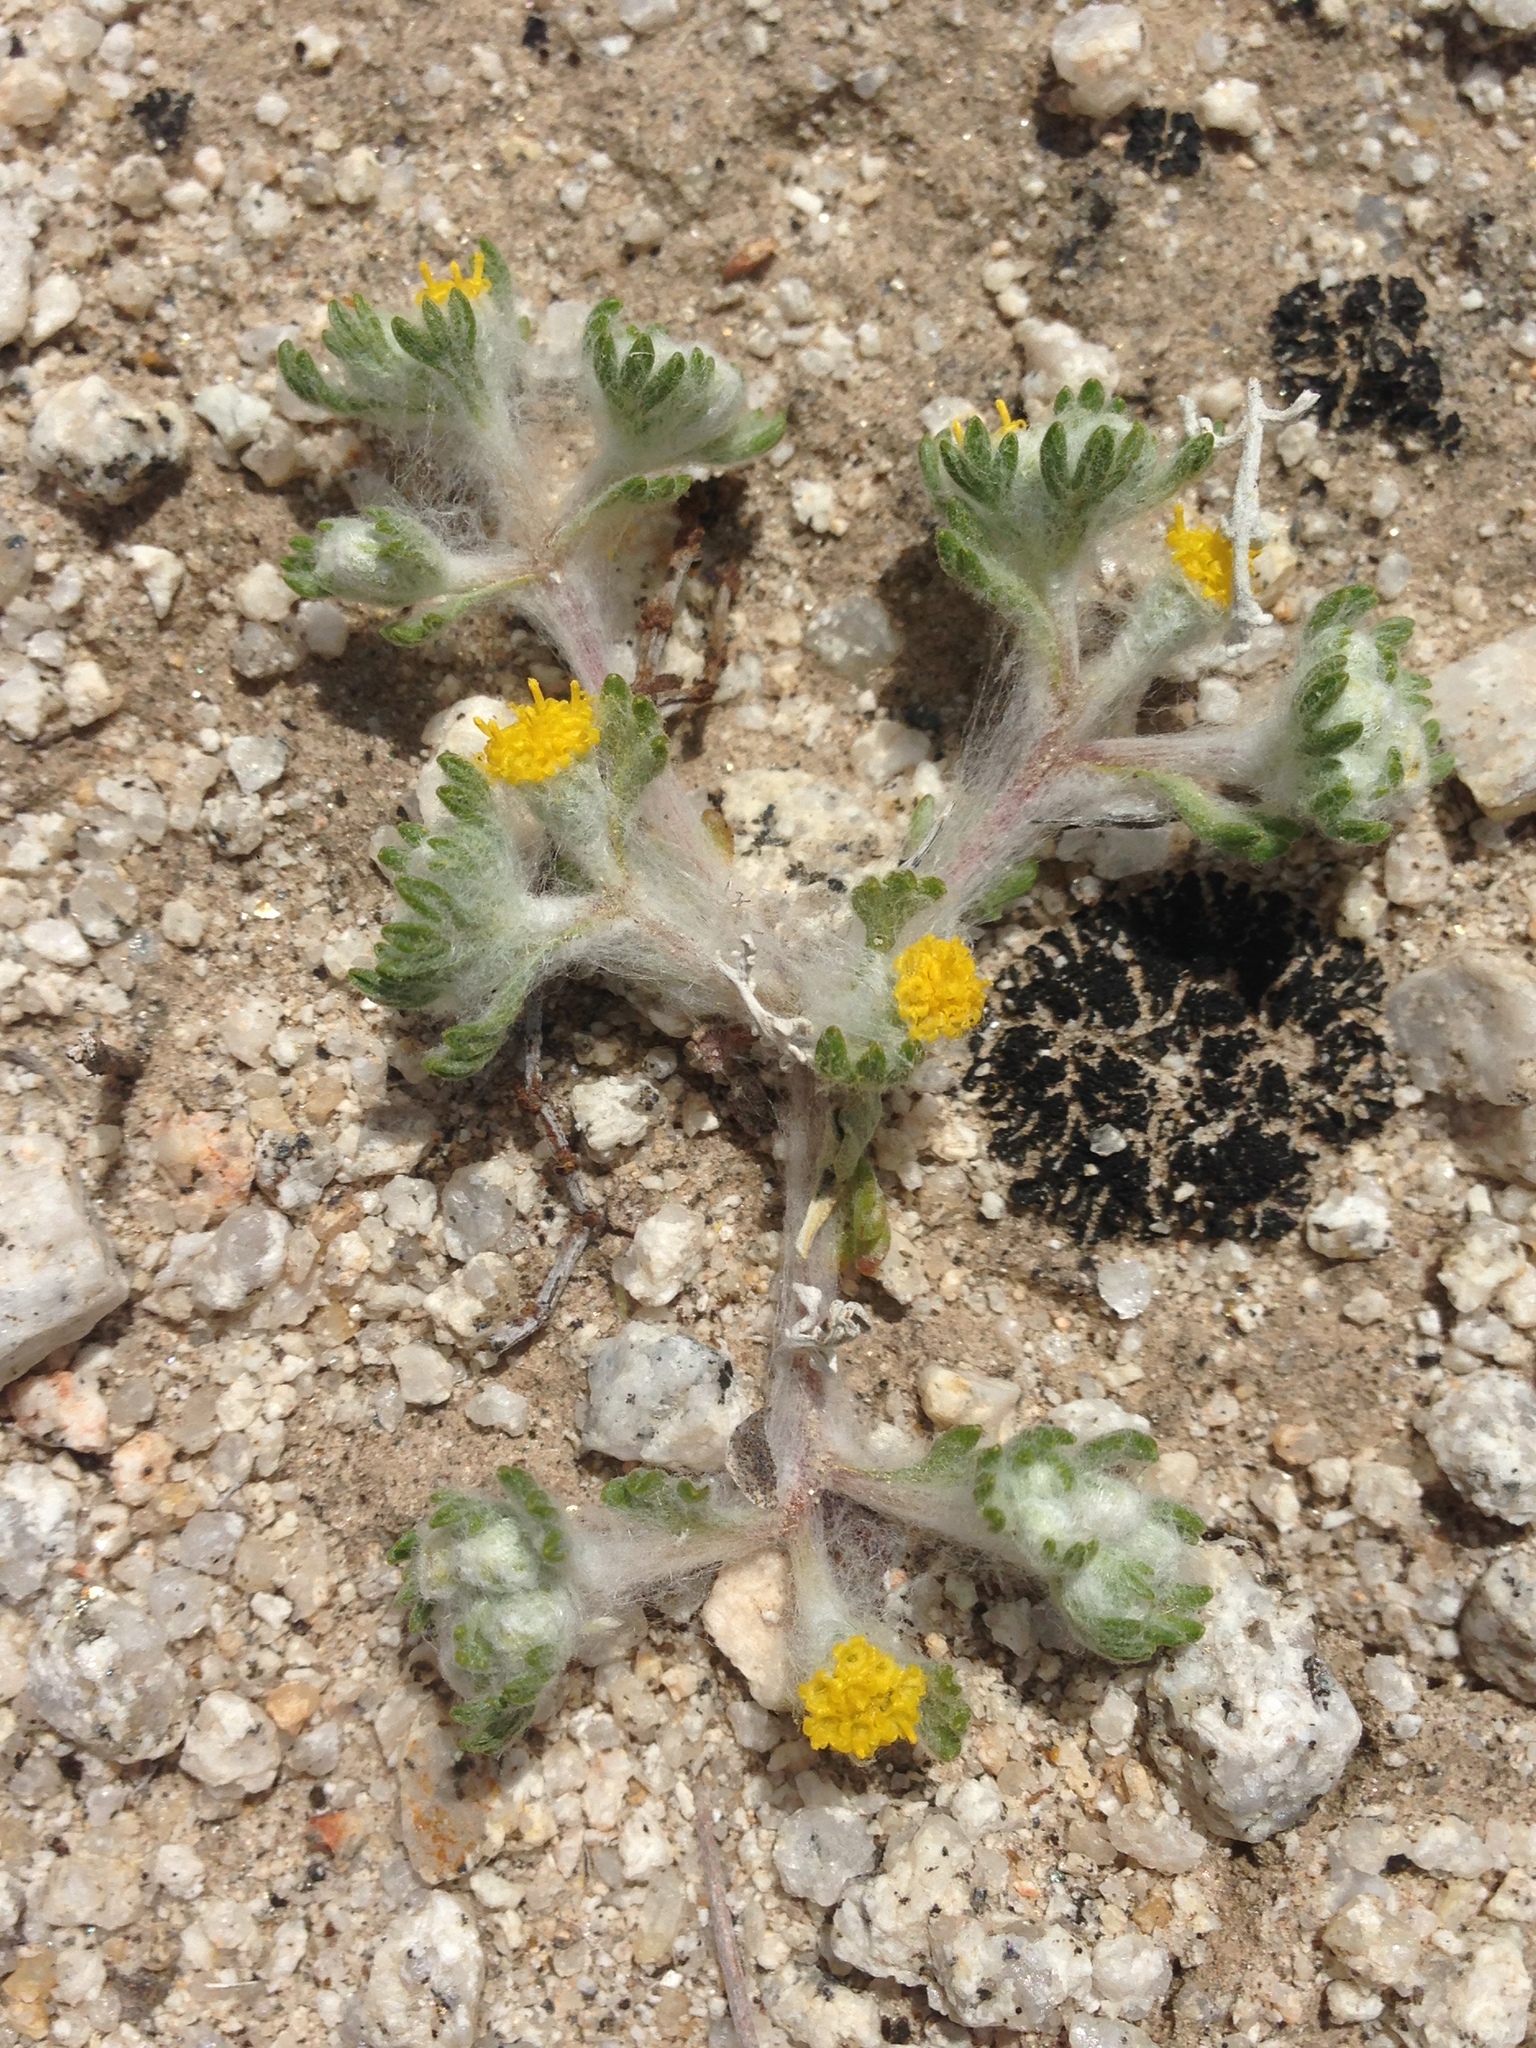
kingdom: Plantae
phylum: Tracheophyta
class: Magnoliopsida
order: Asterales
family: Asteraceae
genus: Eriophyllum
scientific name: Eriophyllum pringlei
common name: Pringle's woolly-sunflower
